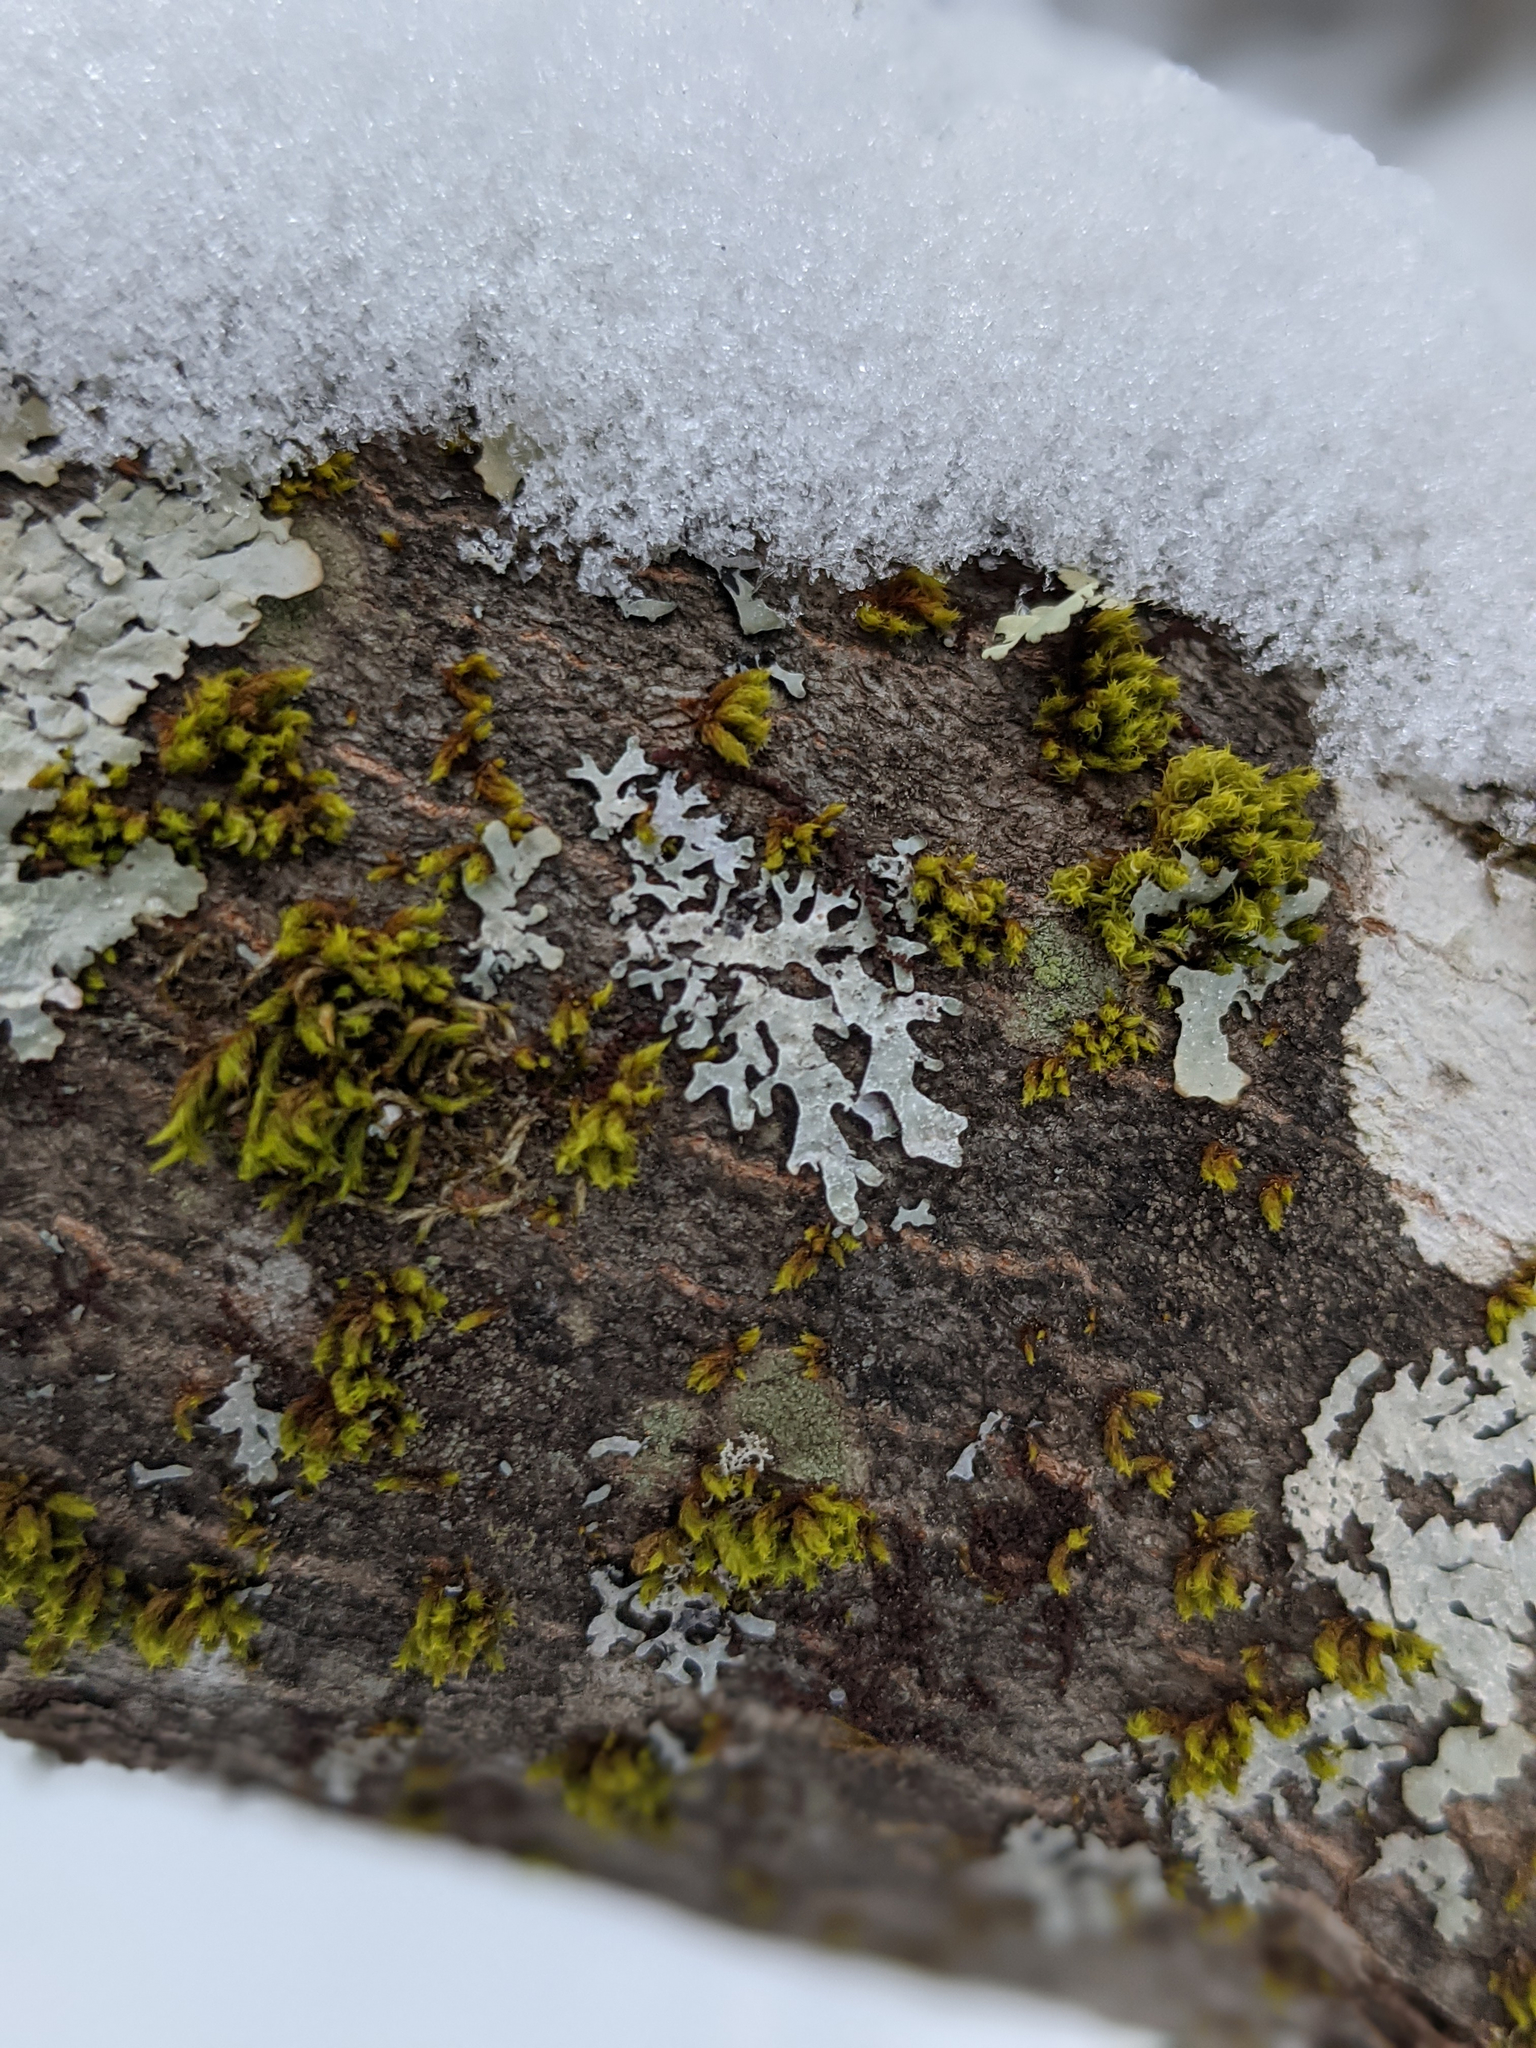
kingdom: Plantae
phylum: Bryophyta
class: Bryopsida
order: Orthotrichales
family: Orthotrichaceae
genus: Ulota
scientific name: Ulota crispa
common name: Crisped pincushion moss
